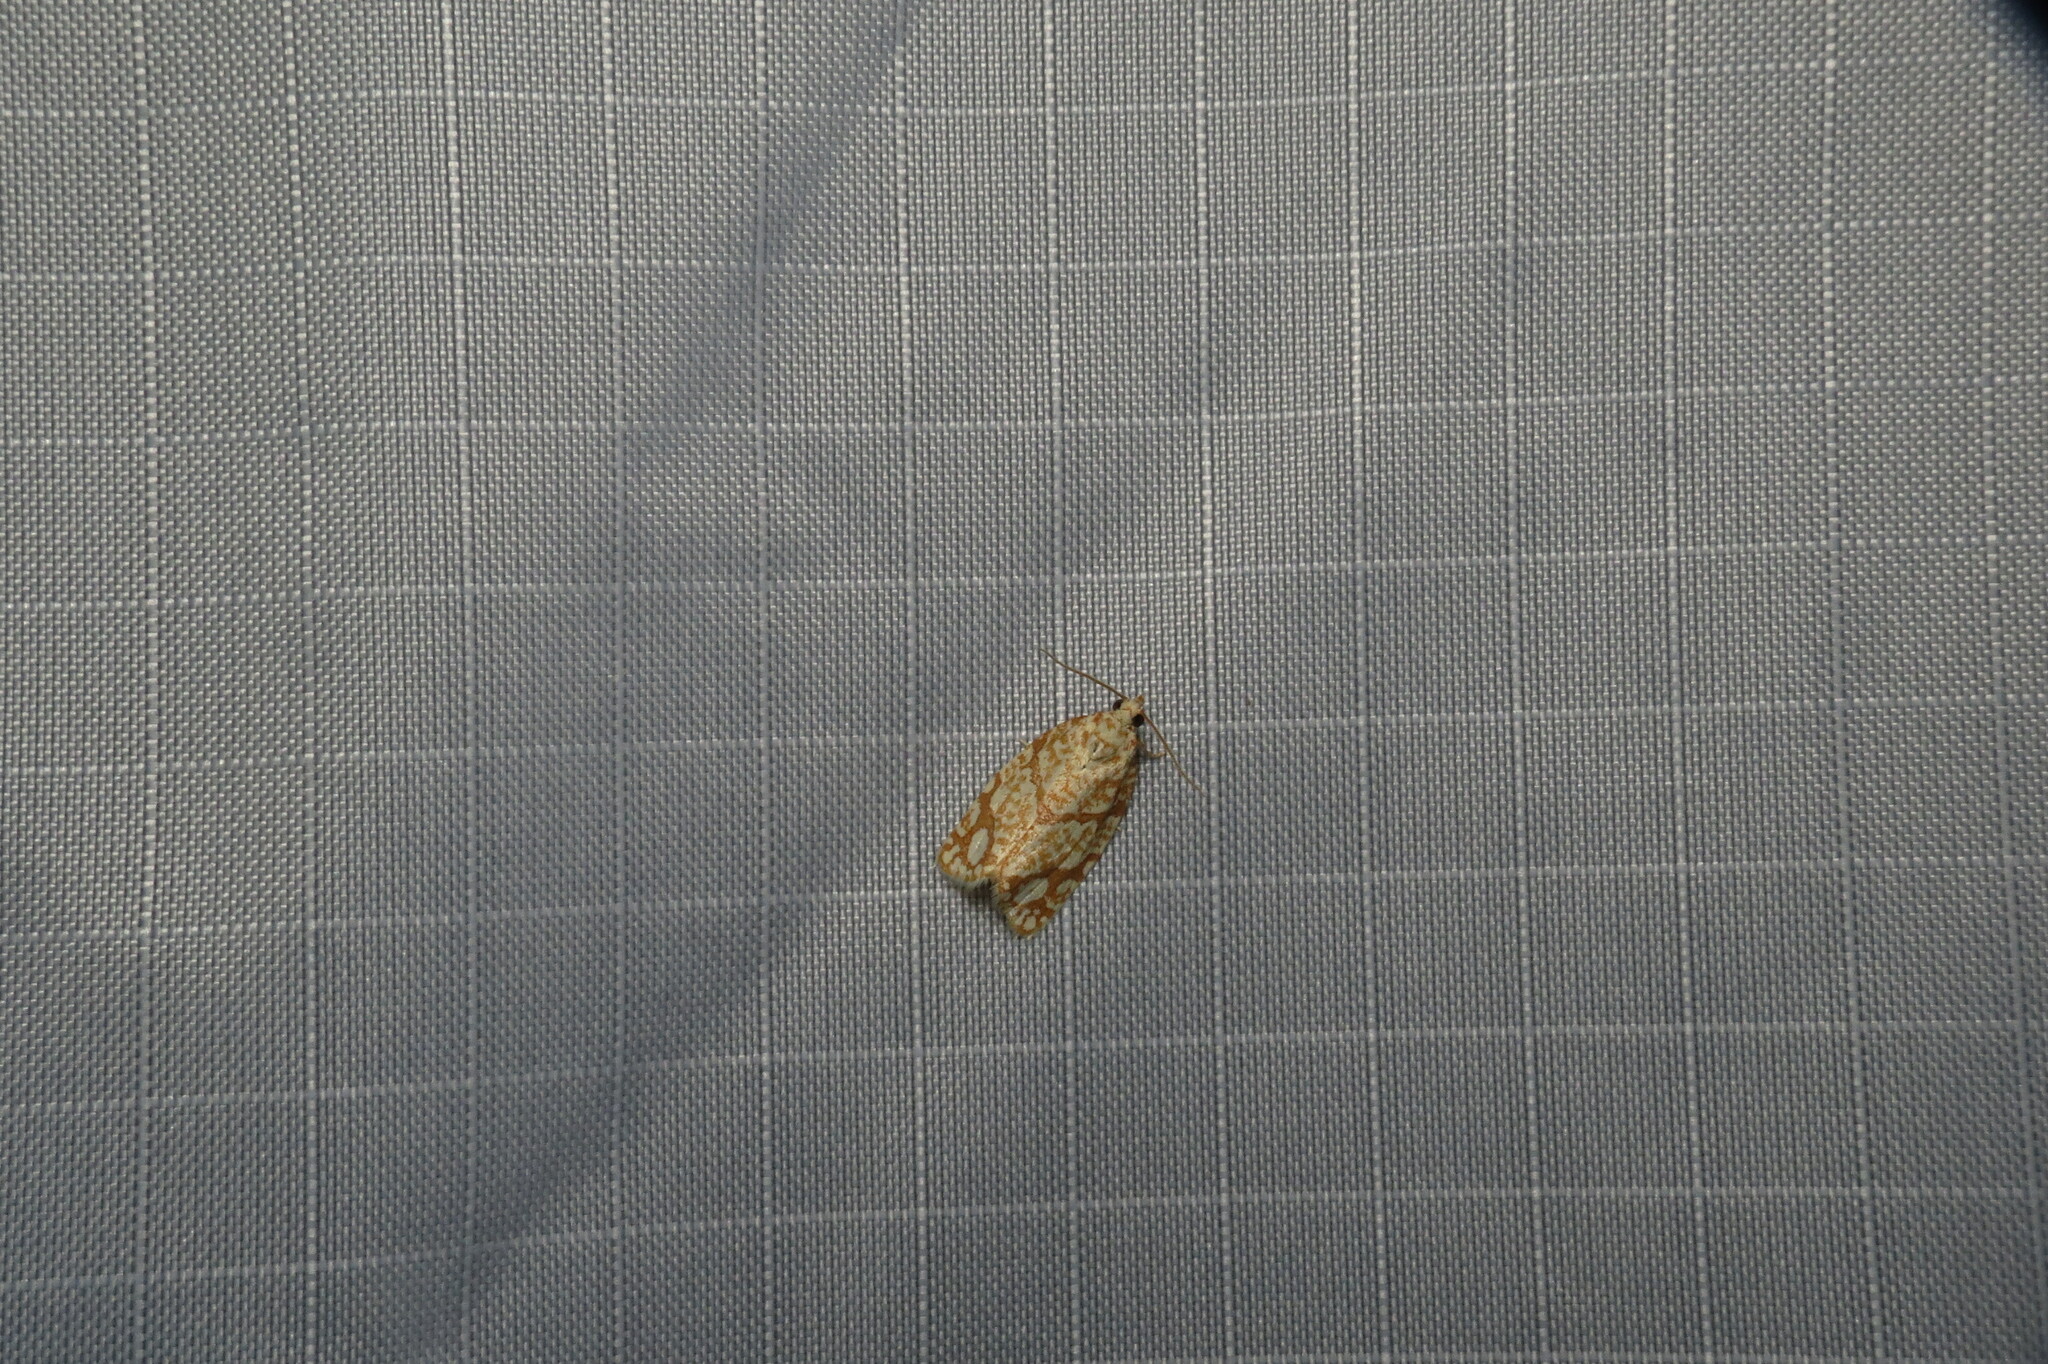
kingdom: Animalia
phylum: Arthropoda
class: Insecta
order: Lepidoptera
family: Tortricidae
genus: Argyrotaenia
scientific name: Argyrotaenia quercifoliana
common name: Yellow-winged oak leafroller moth
